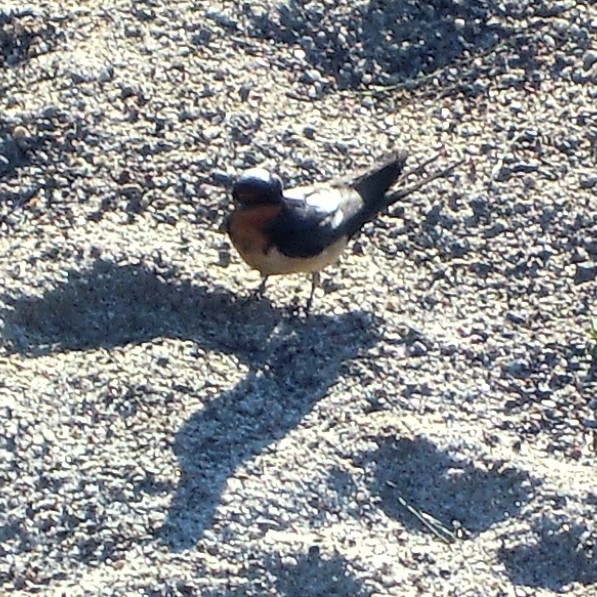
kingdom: Animalia
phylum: Chordata
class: Aves
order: Passeriformes
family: Hirundinidae
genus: Hirundo
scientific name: Hirundo rustica
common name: Barn swallow
